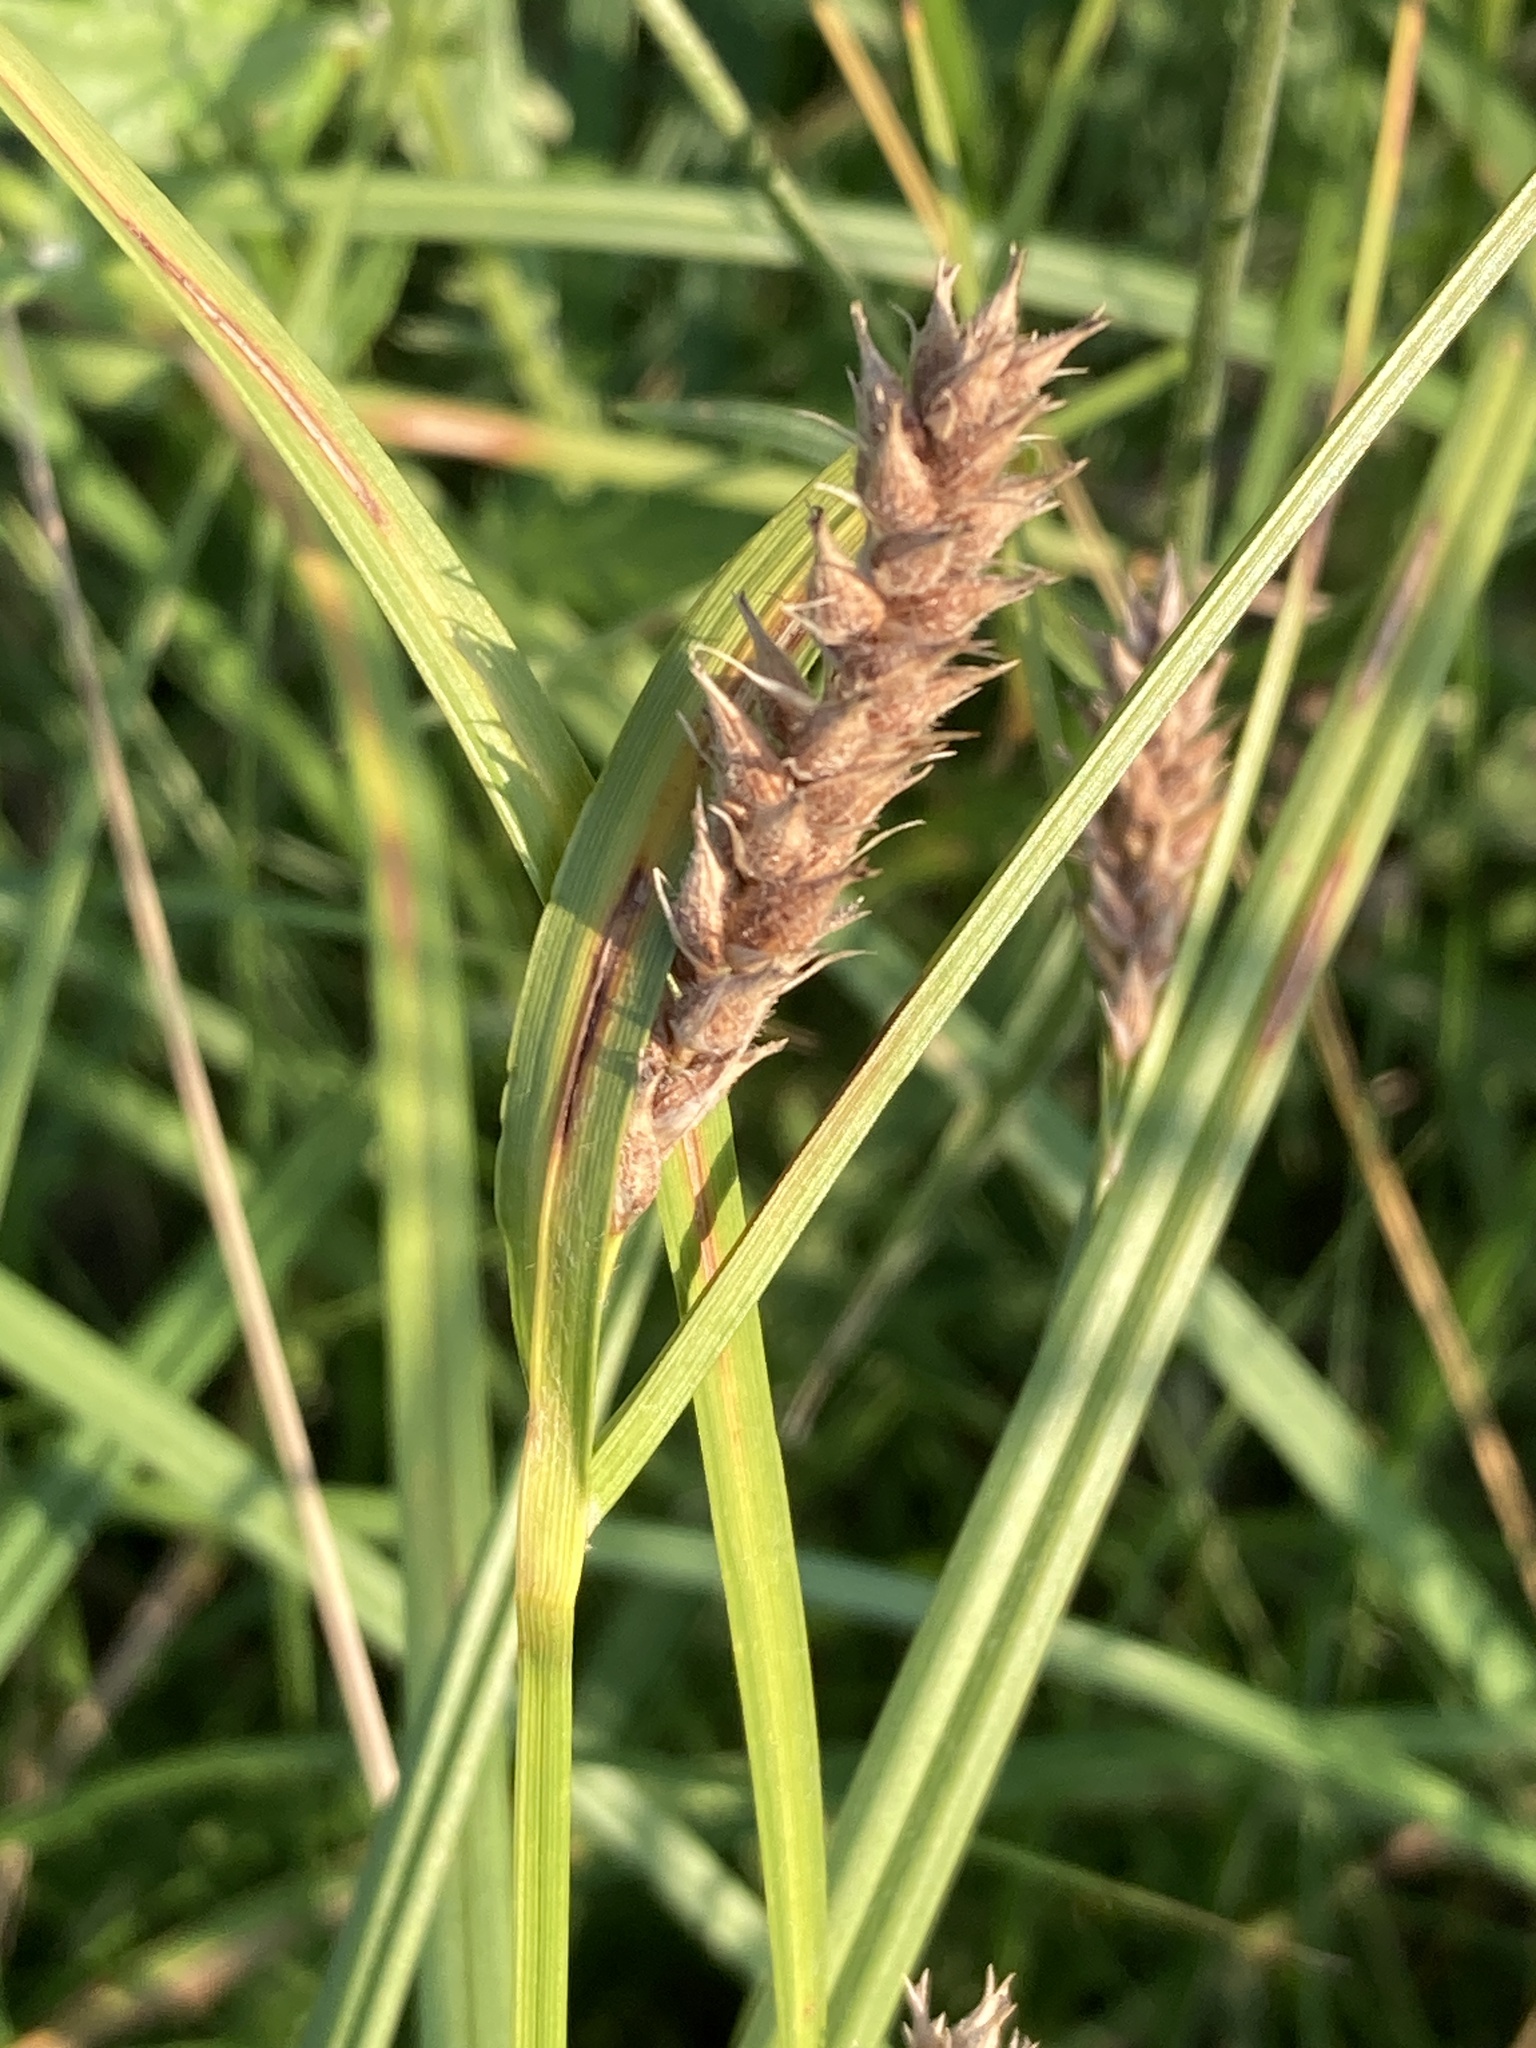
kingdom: Plantae
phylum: Tracheophyta
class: Liliopsida
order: Poales
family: Cyperaceae
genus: Carex
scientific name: Carex hirta
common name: Hairy sedge
